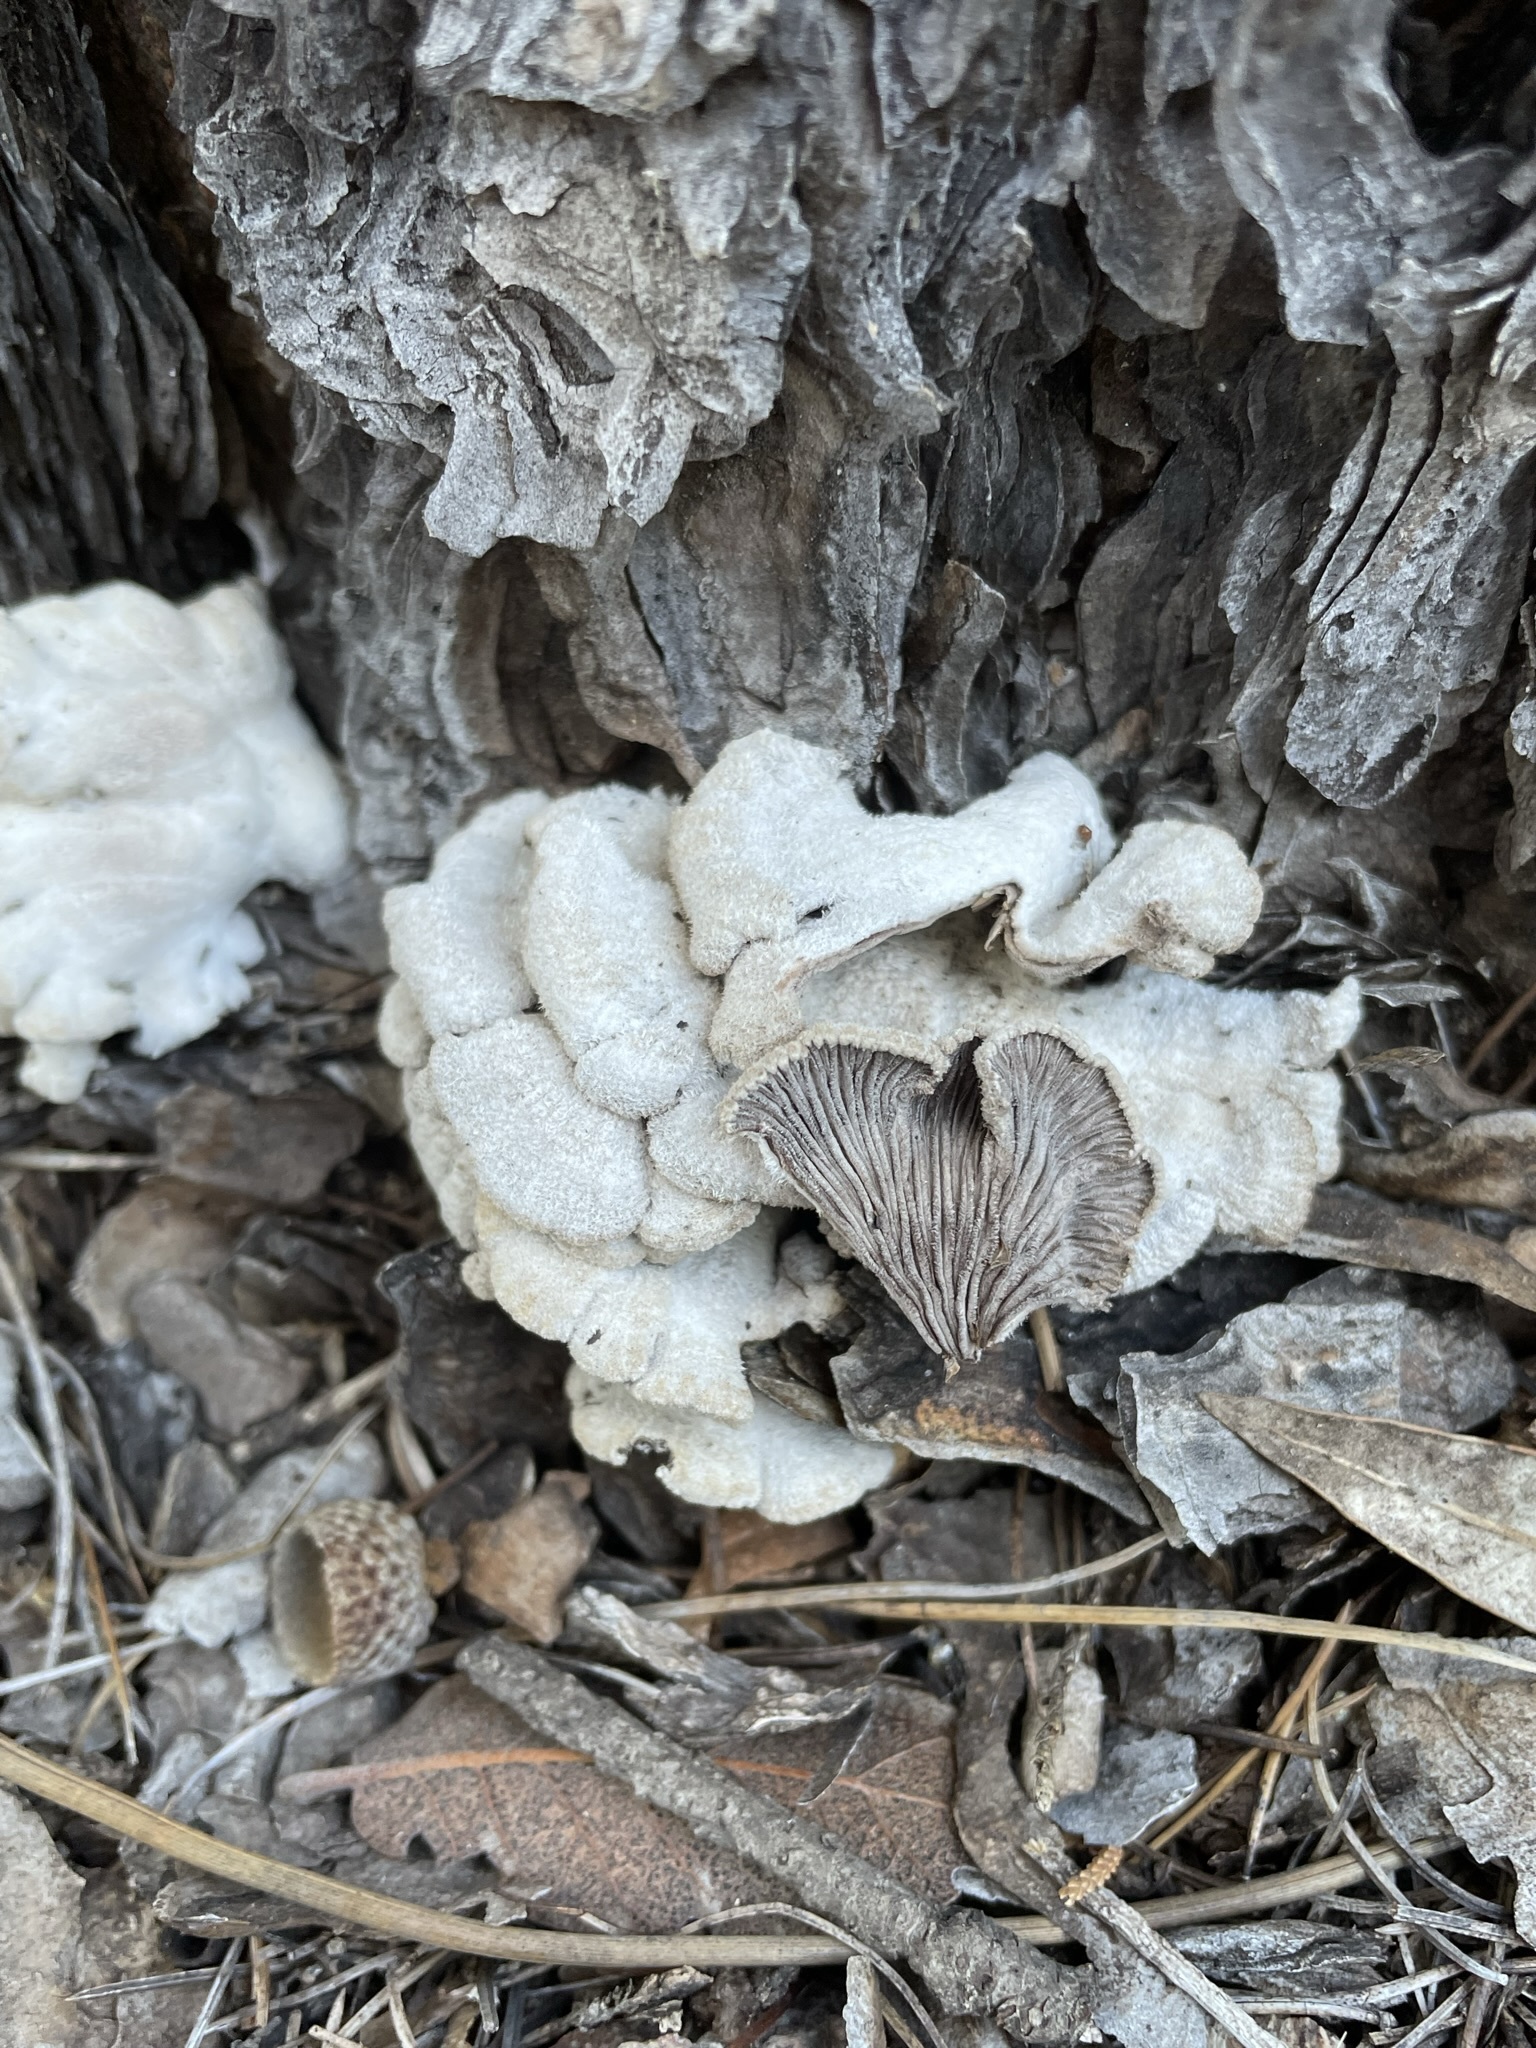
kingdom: Fungi
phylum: Basidiomycota
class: Agaricomycetes
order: Agaricales
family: Schizophyllaceae
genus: Schizophyllum
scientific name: Schizophyllum commune
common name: Common porecrust
